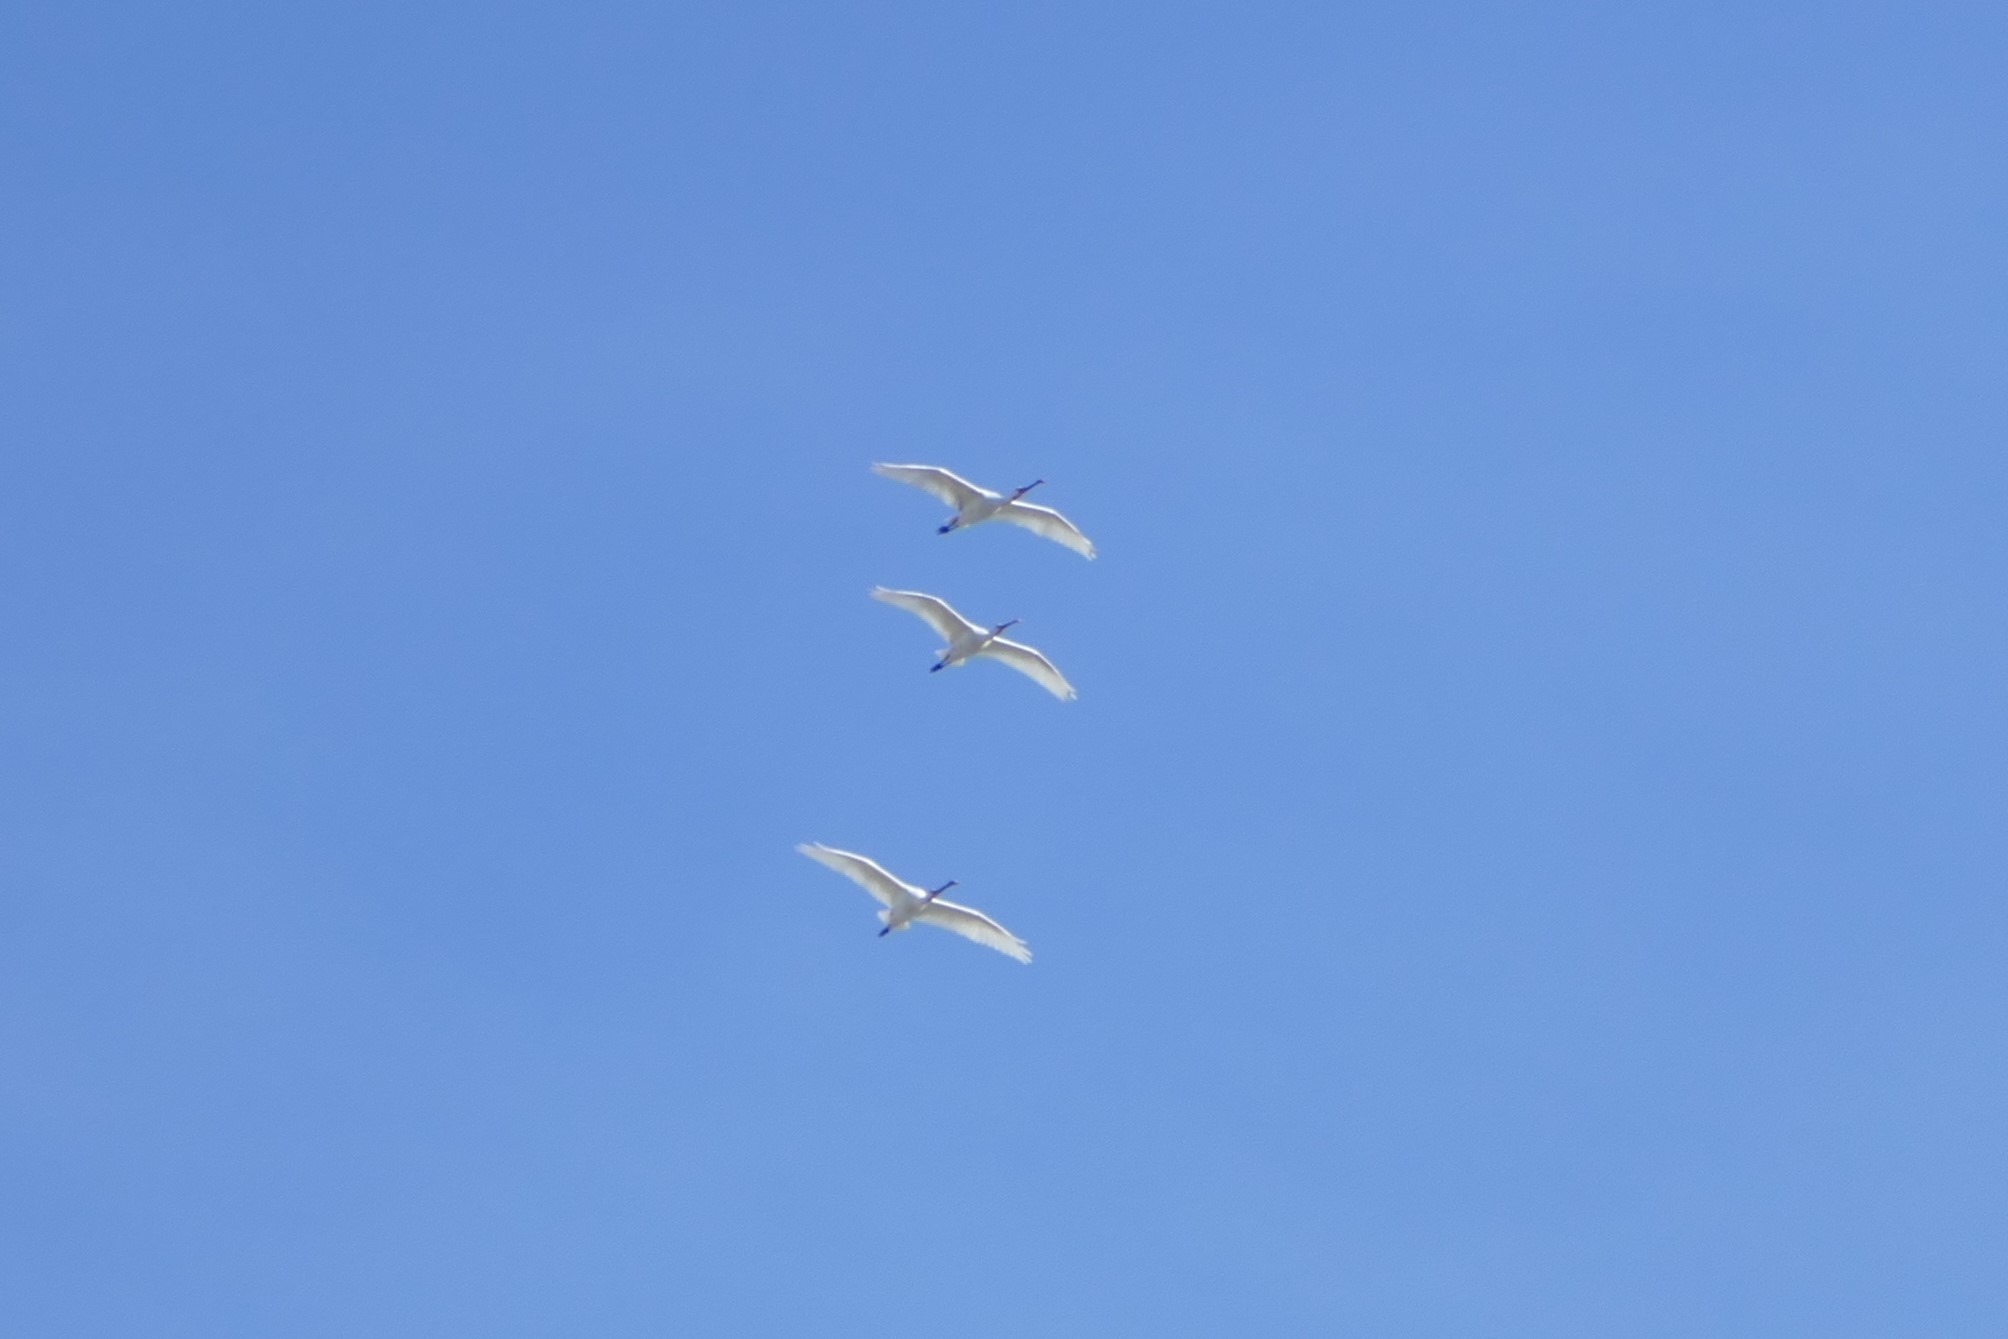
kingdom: Animalia
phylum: Chordata
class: Aves
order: Pelecaniformes
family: Threskiornithidae
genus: Platalea
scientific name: Platalea leucorodia
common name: Eurasian spoonbill
